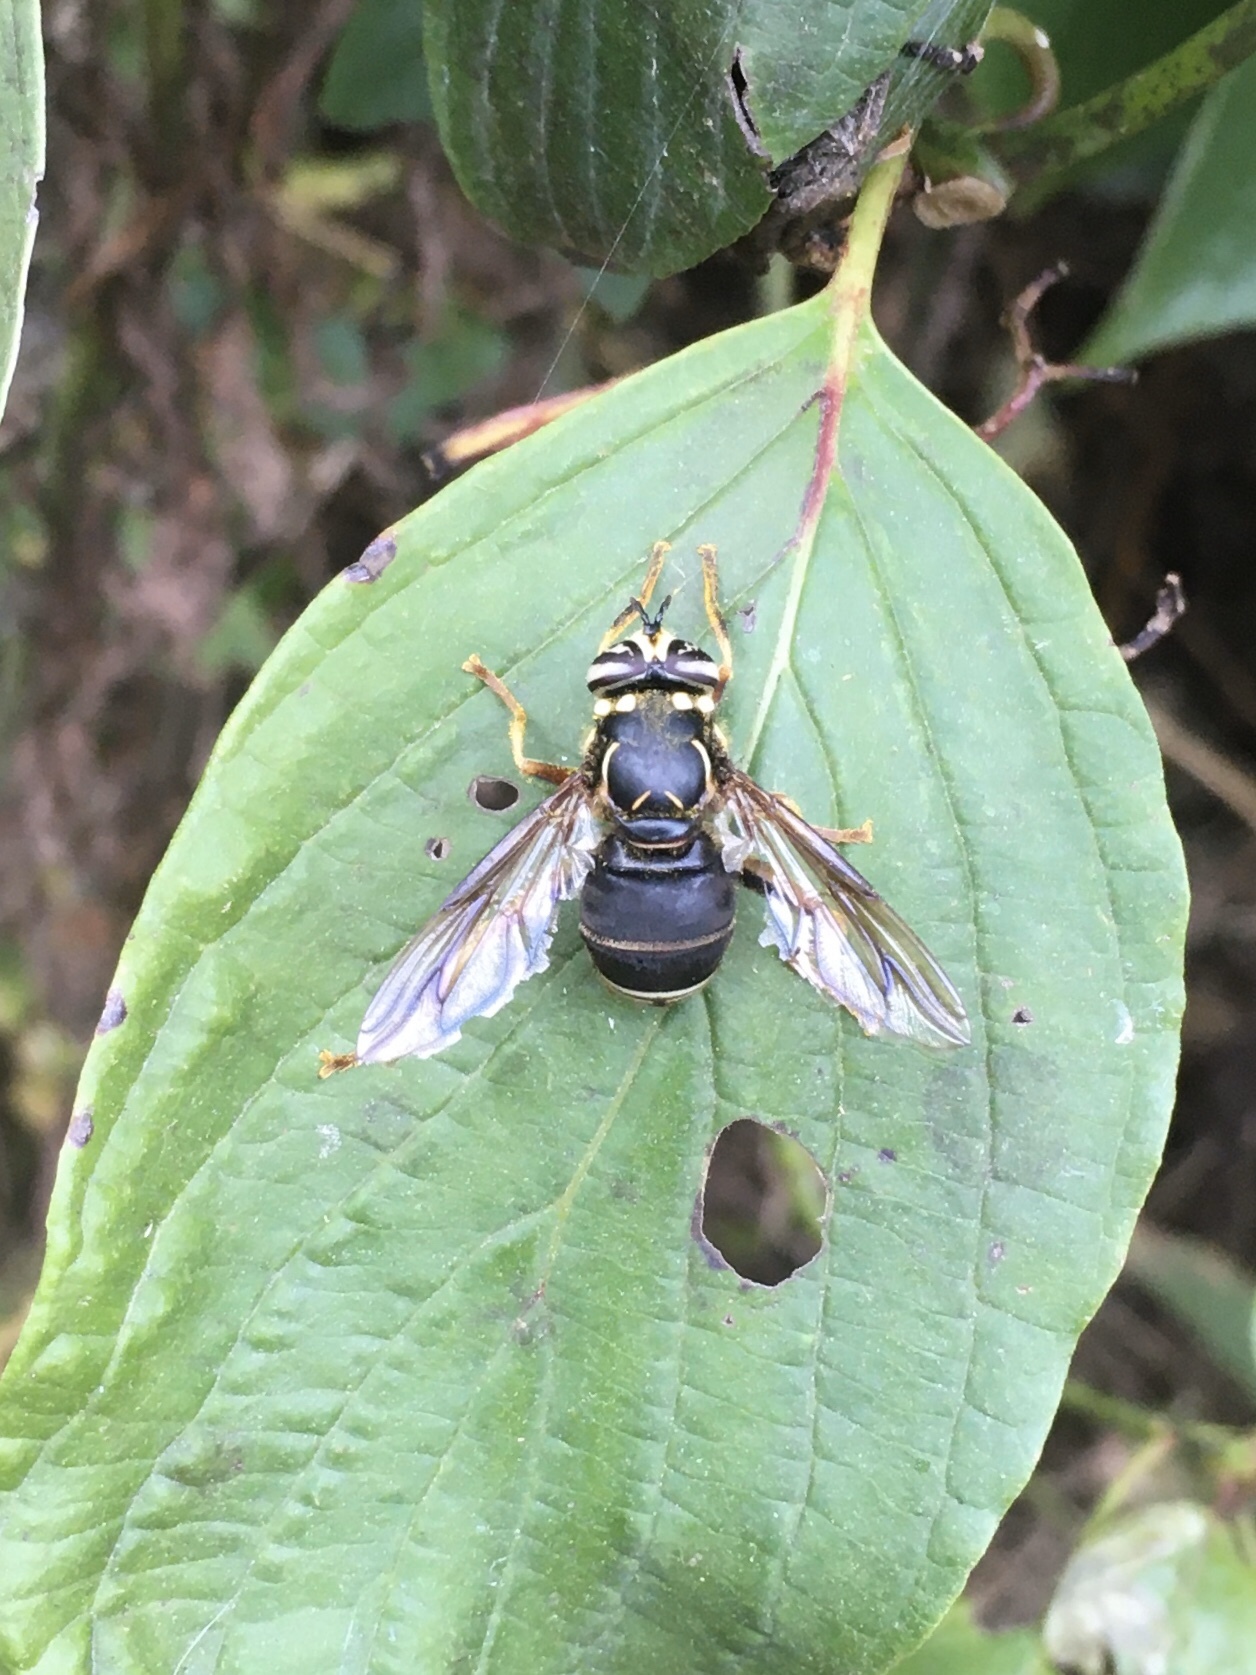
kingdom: Animalia
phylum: Arthropoda
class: Insecta
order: Diptera
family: Syrphidae
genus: Spilomyia
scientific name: Spilomyia fusca
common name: Bald-faced hornet fly
